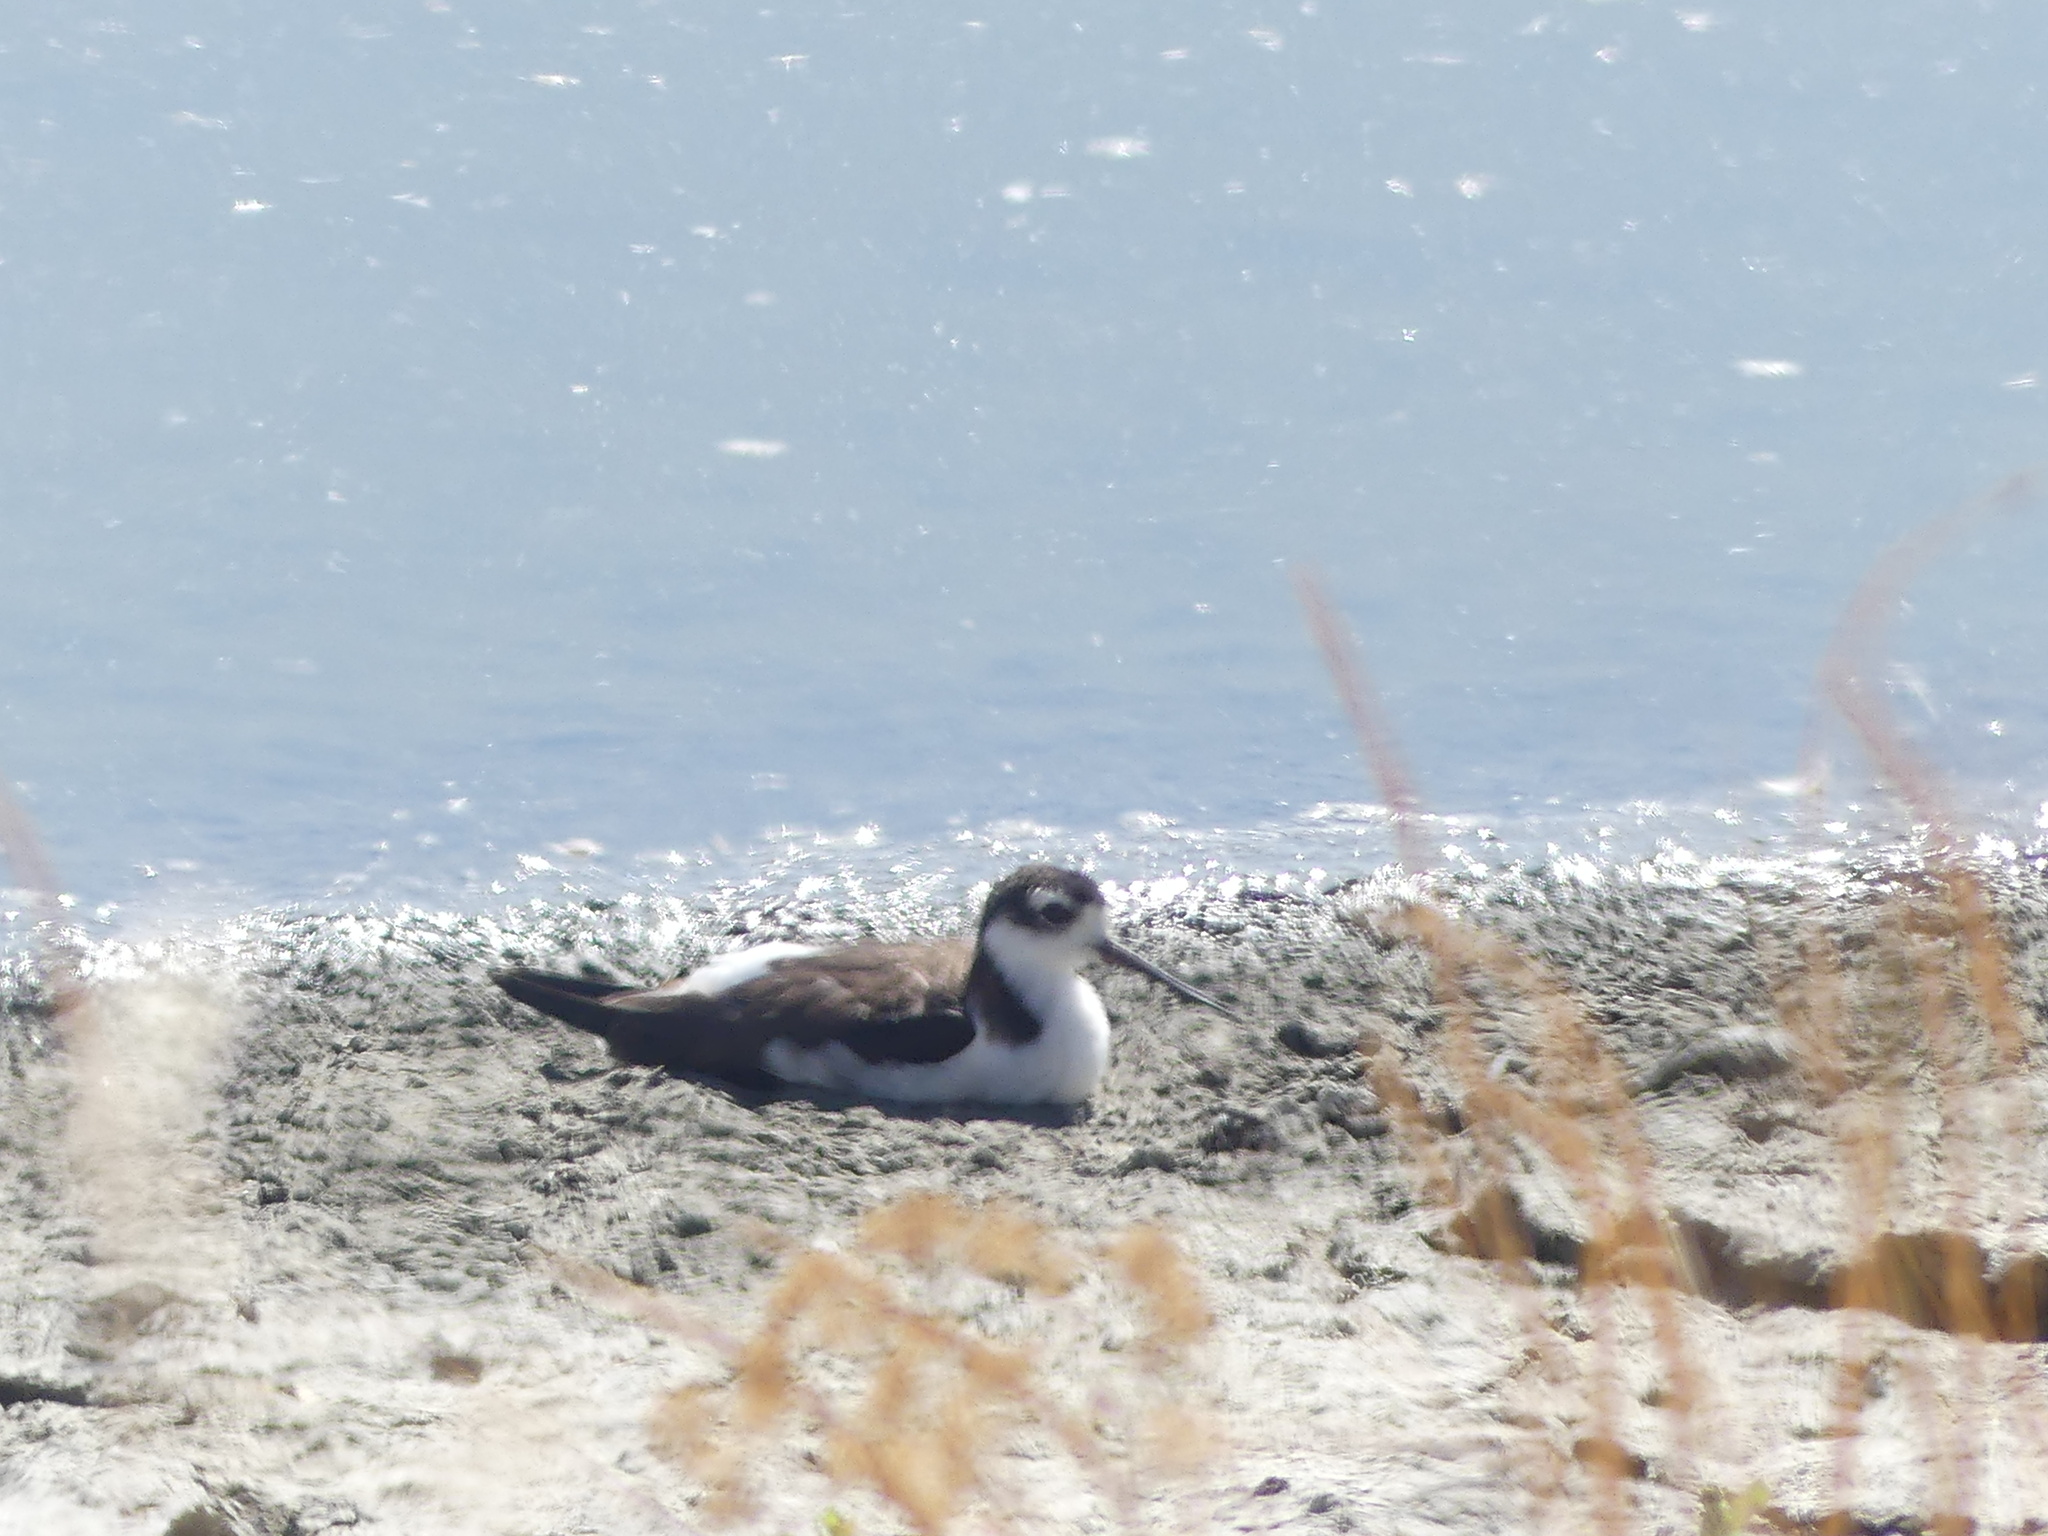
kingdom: Animalia
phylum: Chordata
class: Aves
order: Charadriiformes
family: Recurvirostridae
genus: Himantopus
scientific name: Himantopus mexicanus
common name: Black-necked stilt
